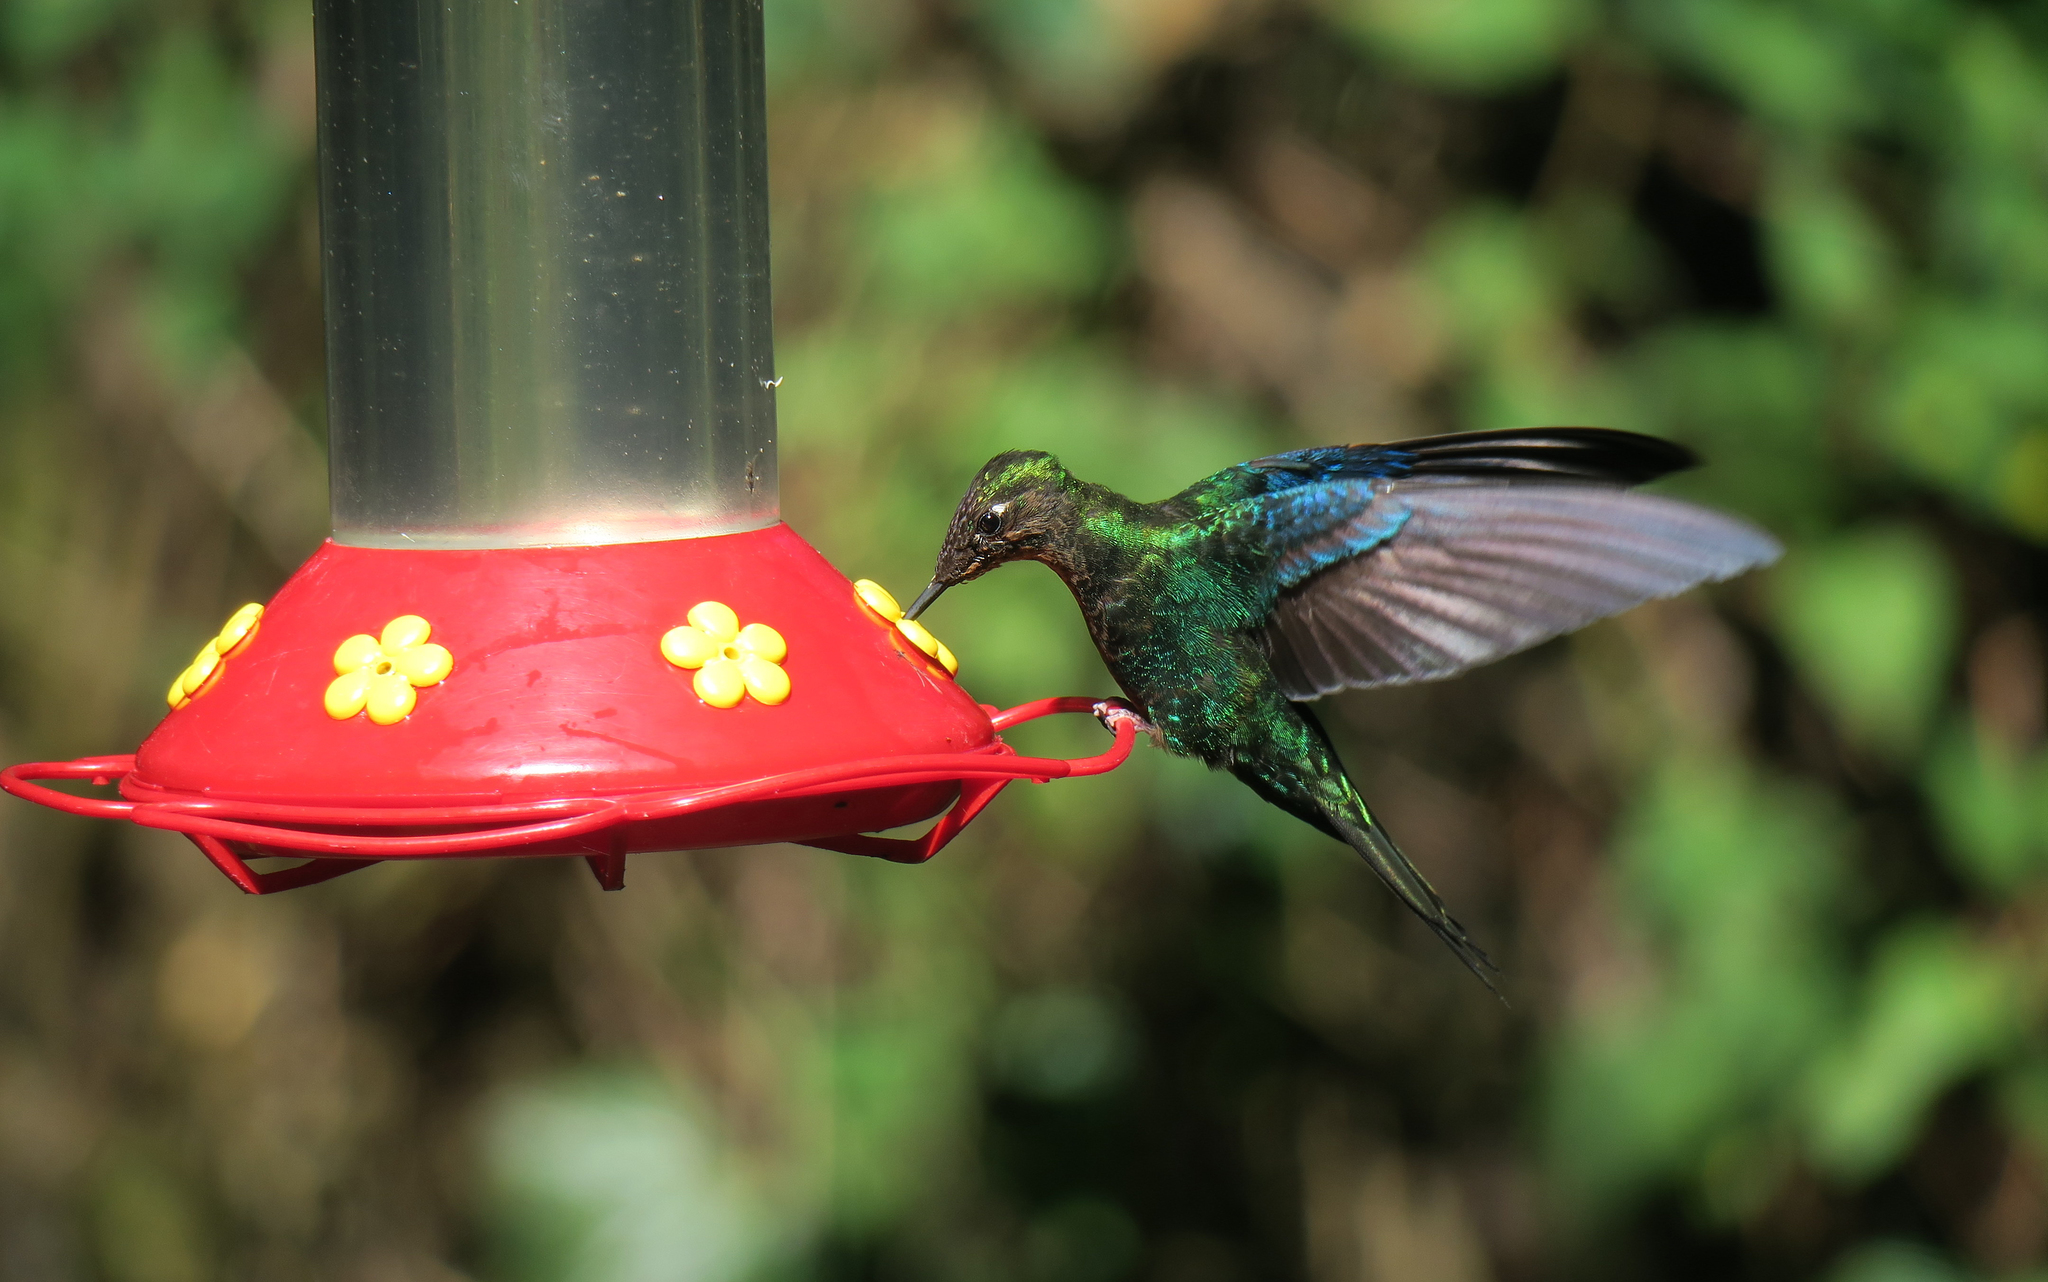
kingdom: Animalia
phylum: Chordata
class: Aves
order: Apodiformes
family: Trochilidae
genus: Pterophanes
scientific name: Pterophanes cyanopterus
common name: Great sapphirewing
